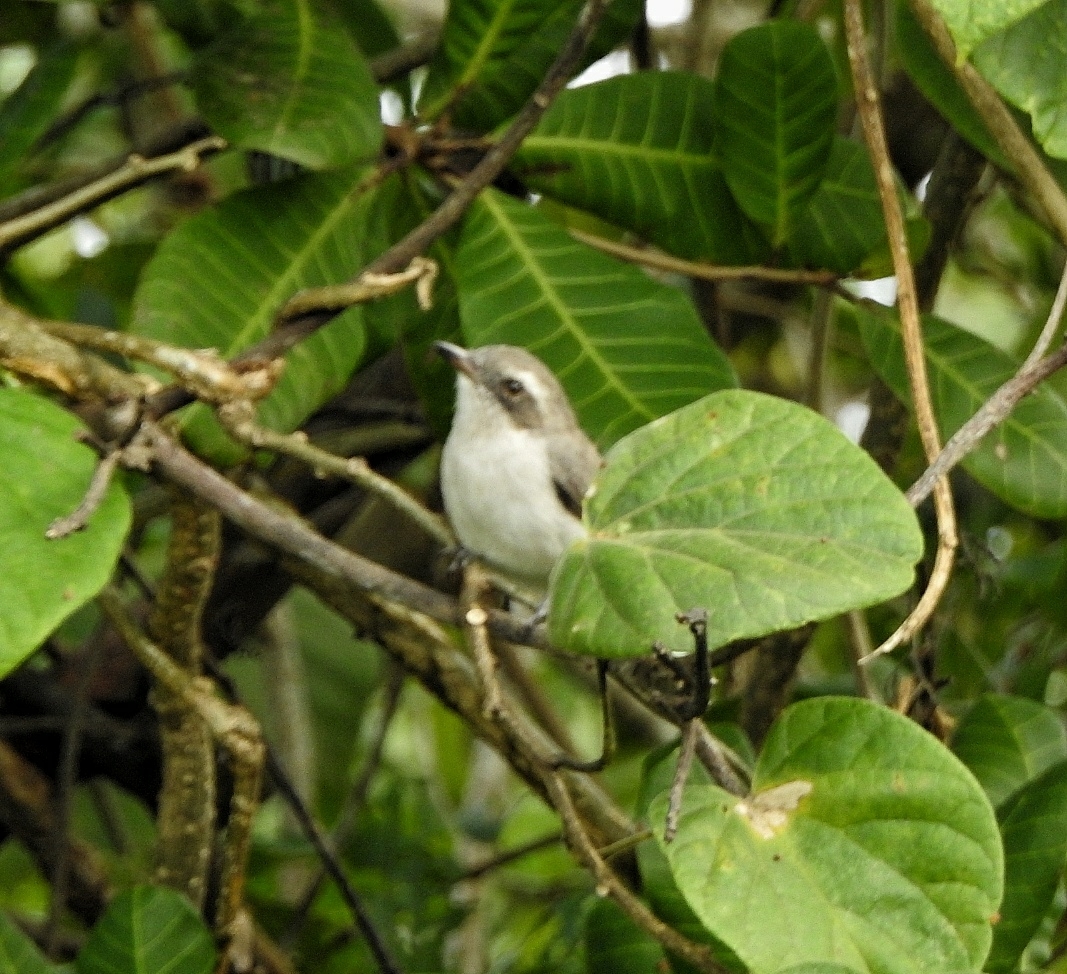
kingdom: Animalia
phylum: Chordata
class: Aves
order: Passeriformes
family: Tephrodornithidae
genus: Tephrodornis
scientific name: Tephrodornis pondicerianus
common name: Common woodshrike
